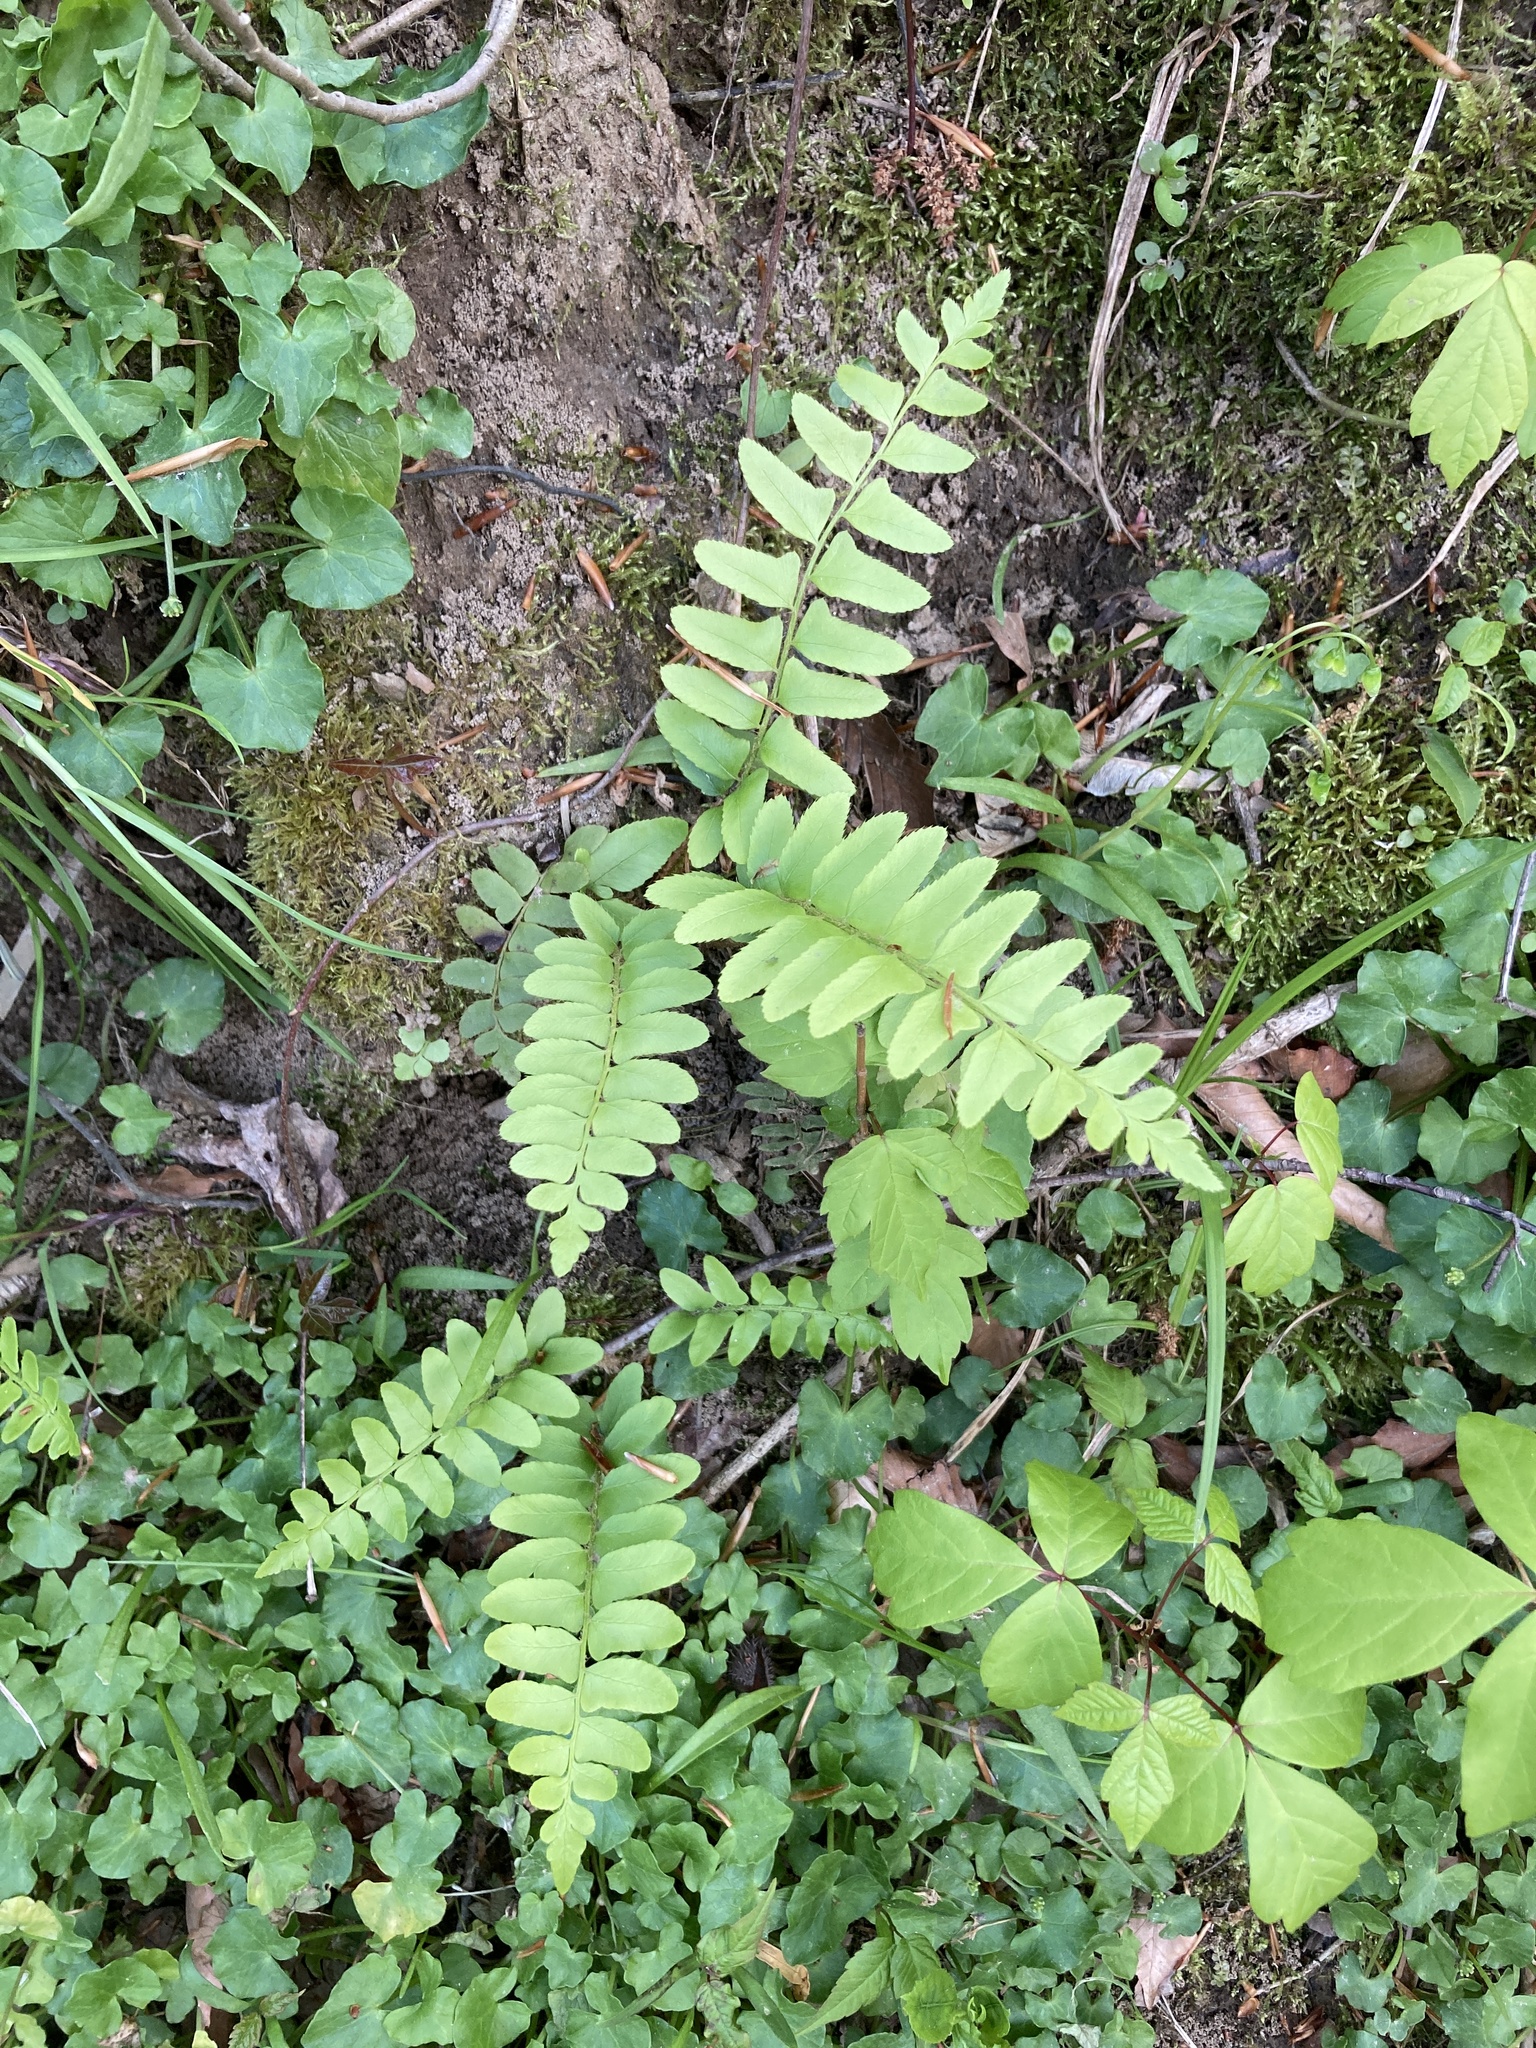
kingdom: Plantae
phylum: Tracheophyta
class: Polypodiopsida
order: Polypodiales
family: Dryopteridaceae
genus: Polystichum
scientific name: Polystichum acrostichoides
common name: Christmas fern
